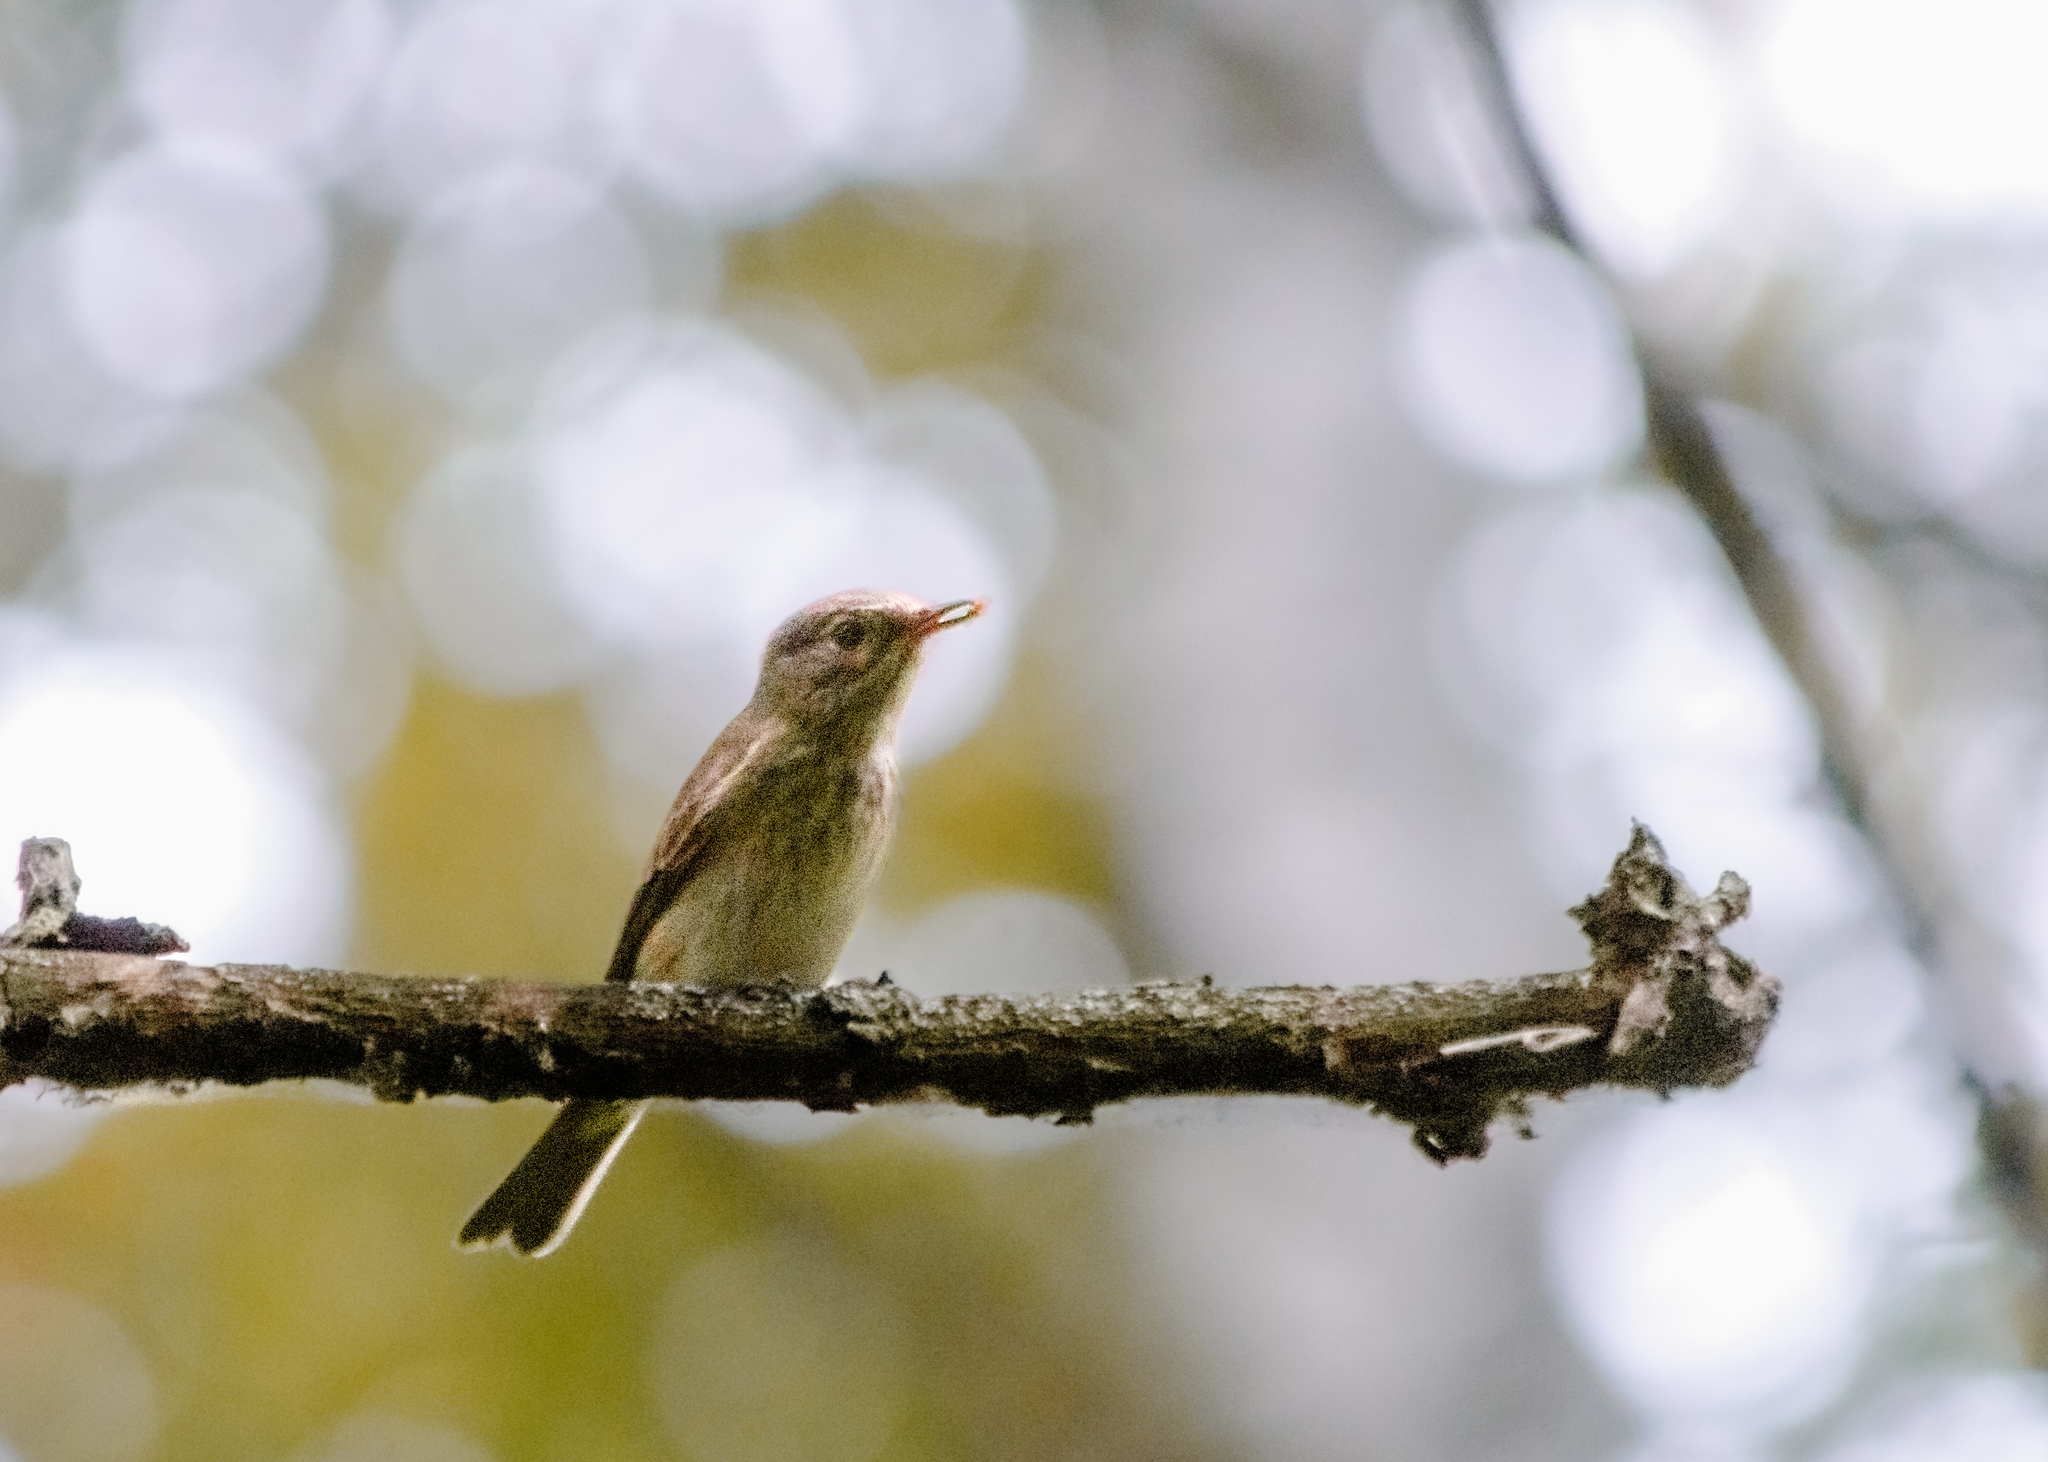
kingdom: Animalia
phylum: Chordata
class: Aves
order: Passeriformes
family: Muscicapidae
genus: Muscicapa
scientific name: Muscicapa striata
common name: Spotted flycatcher
